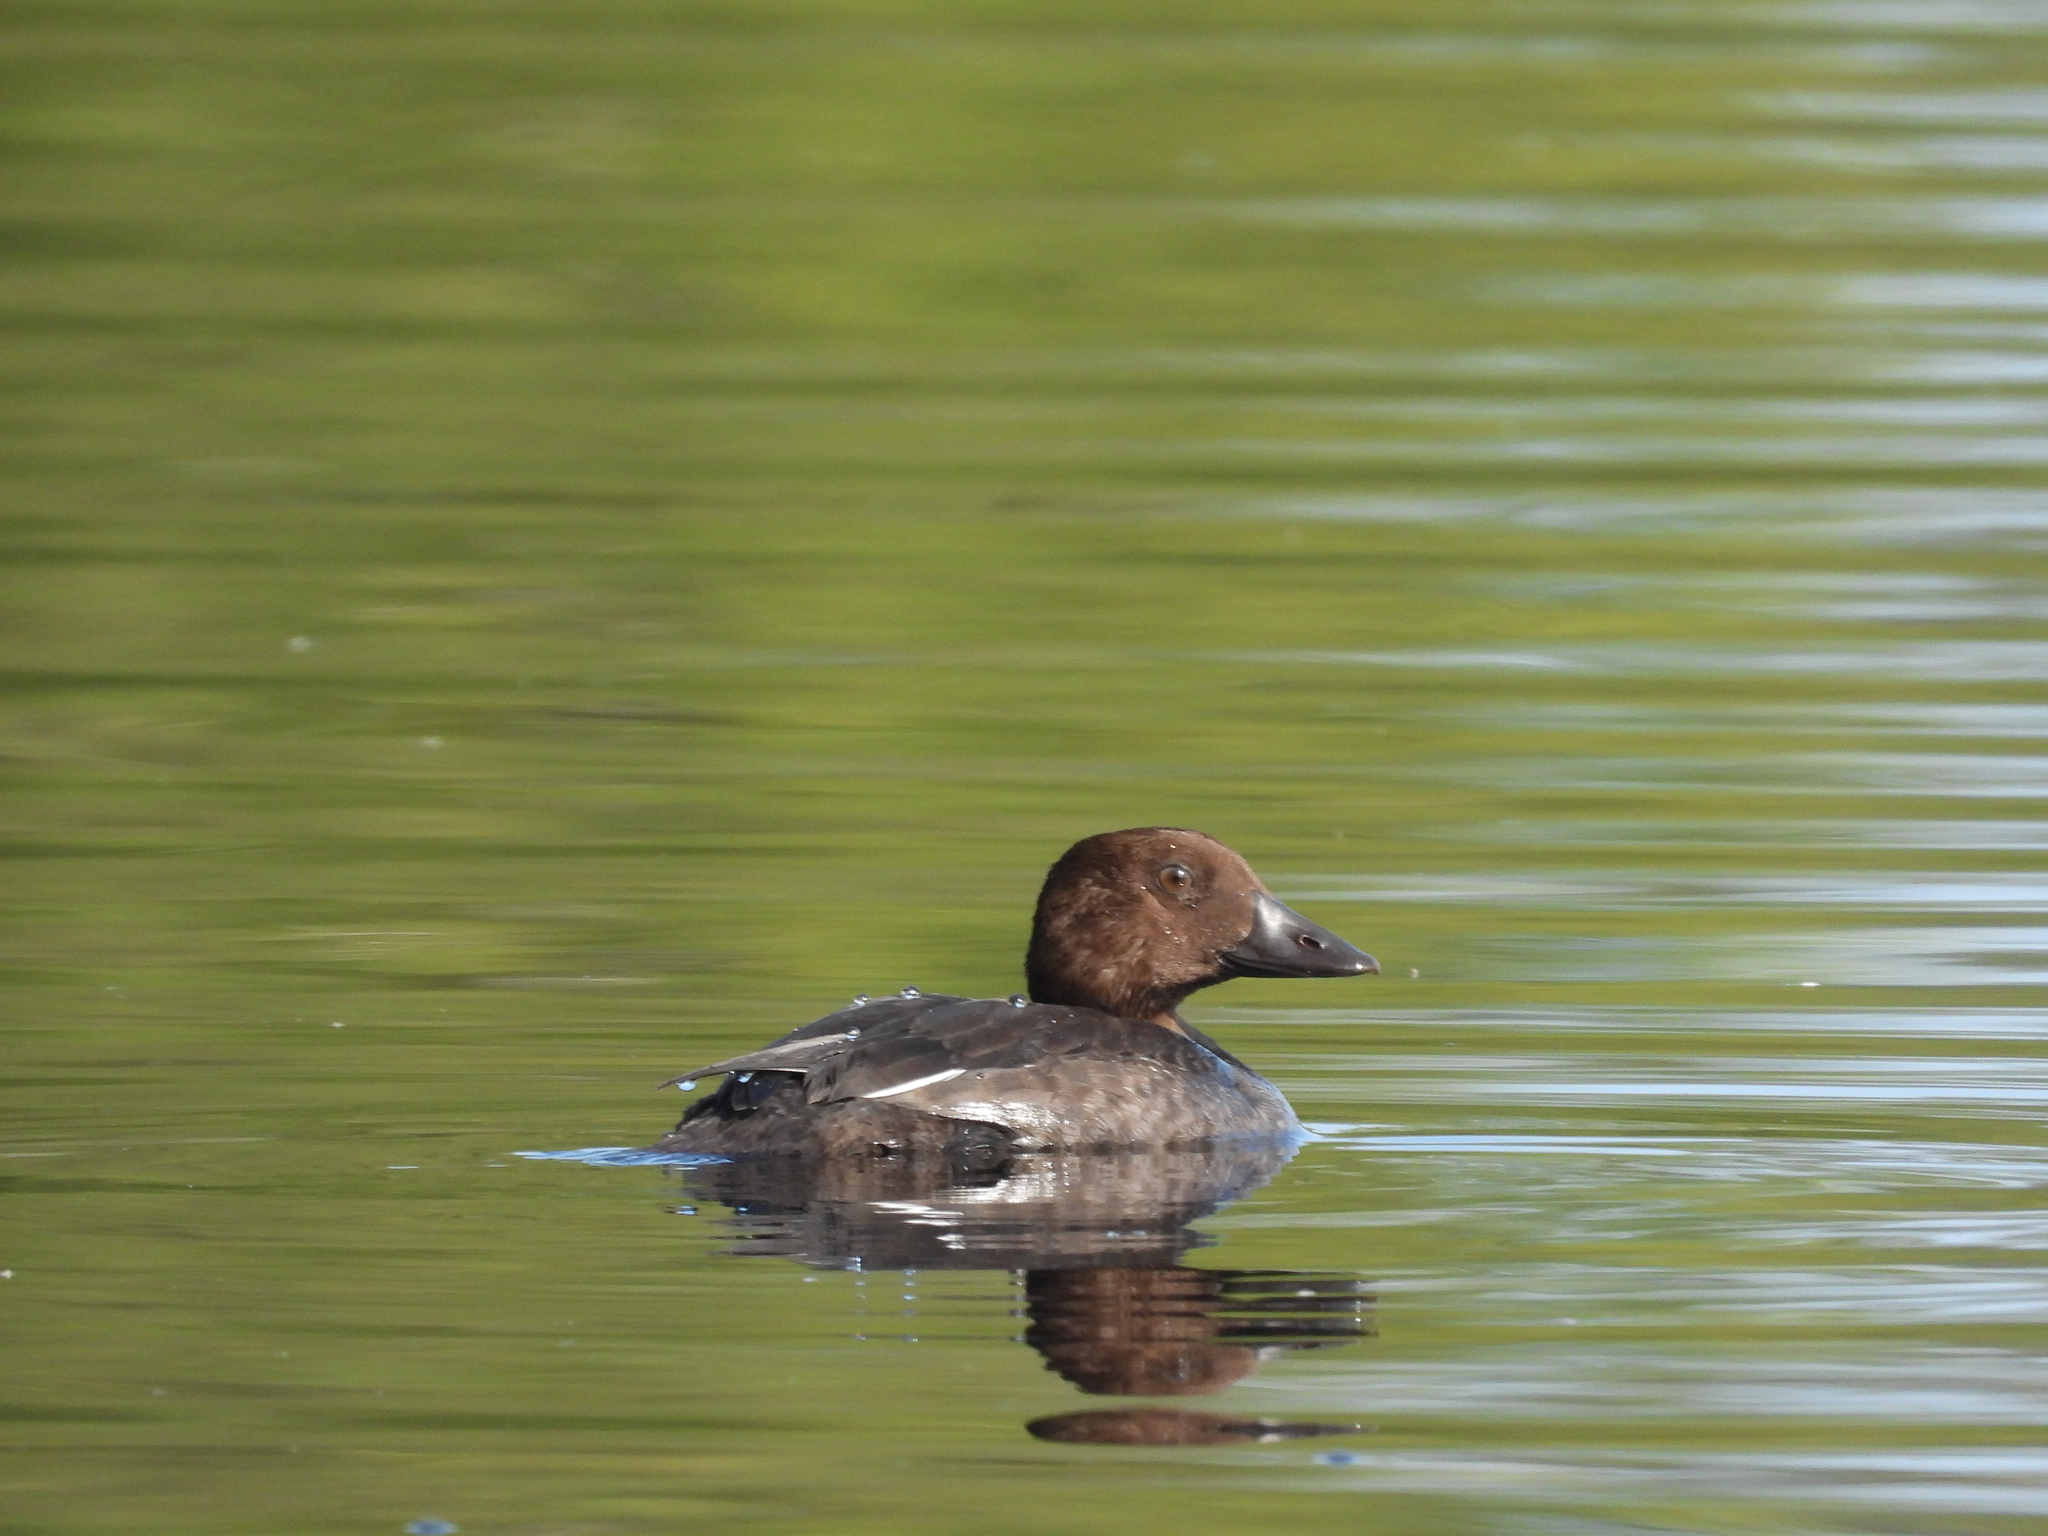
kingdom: Animalia
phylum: Chordata
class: Aves
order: Anseriformes
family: Anatidae
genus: Bucephala
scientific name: Bucephala clangula
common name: Common goldeneye
